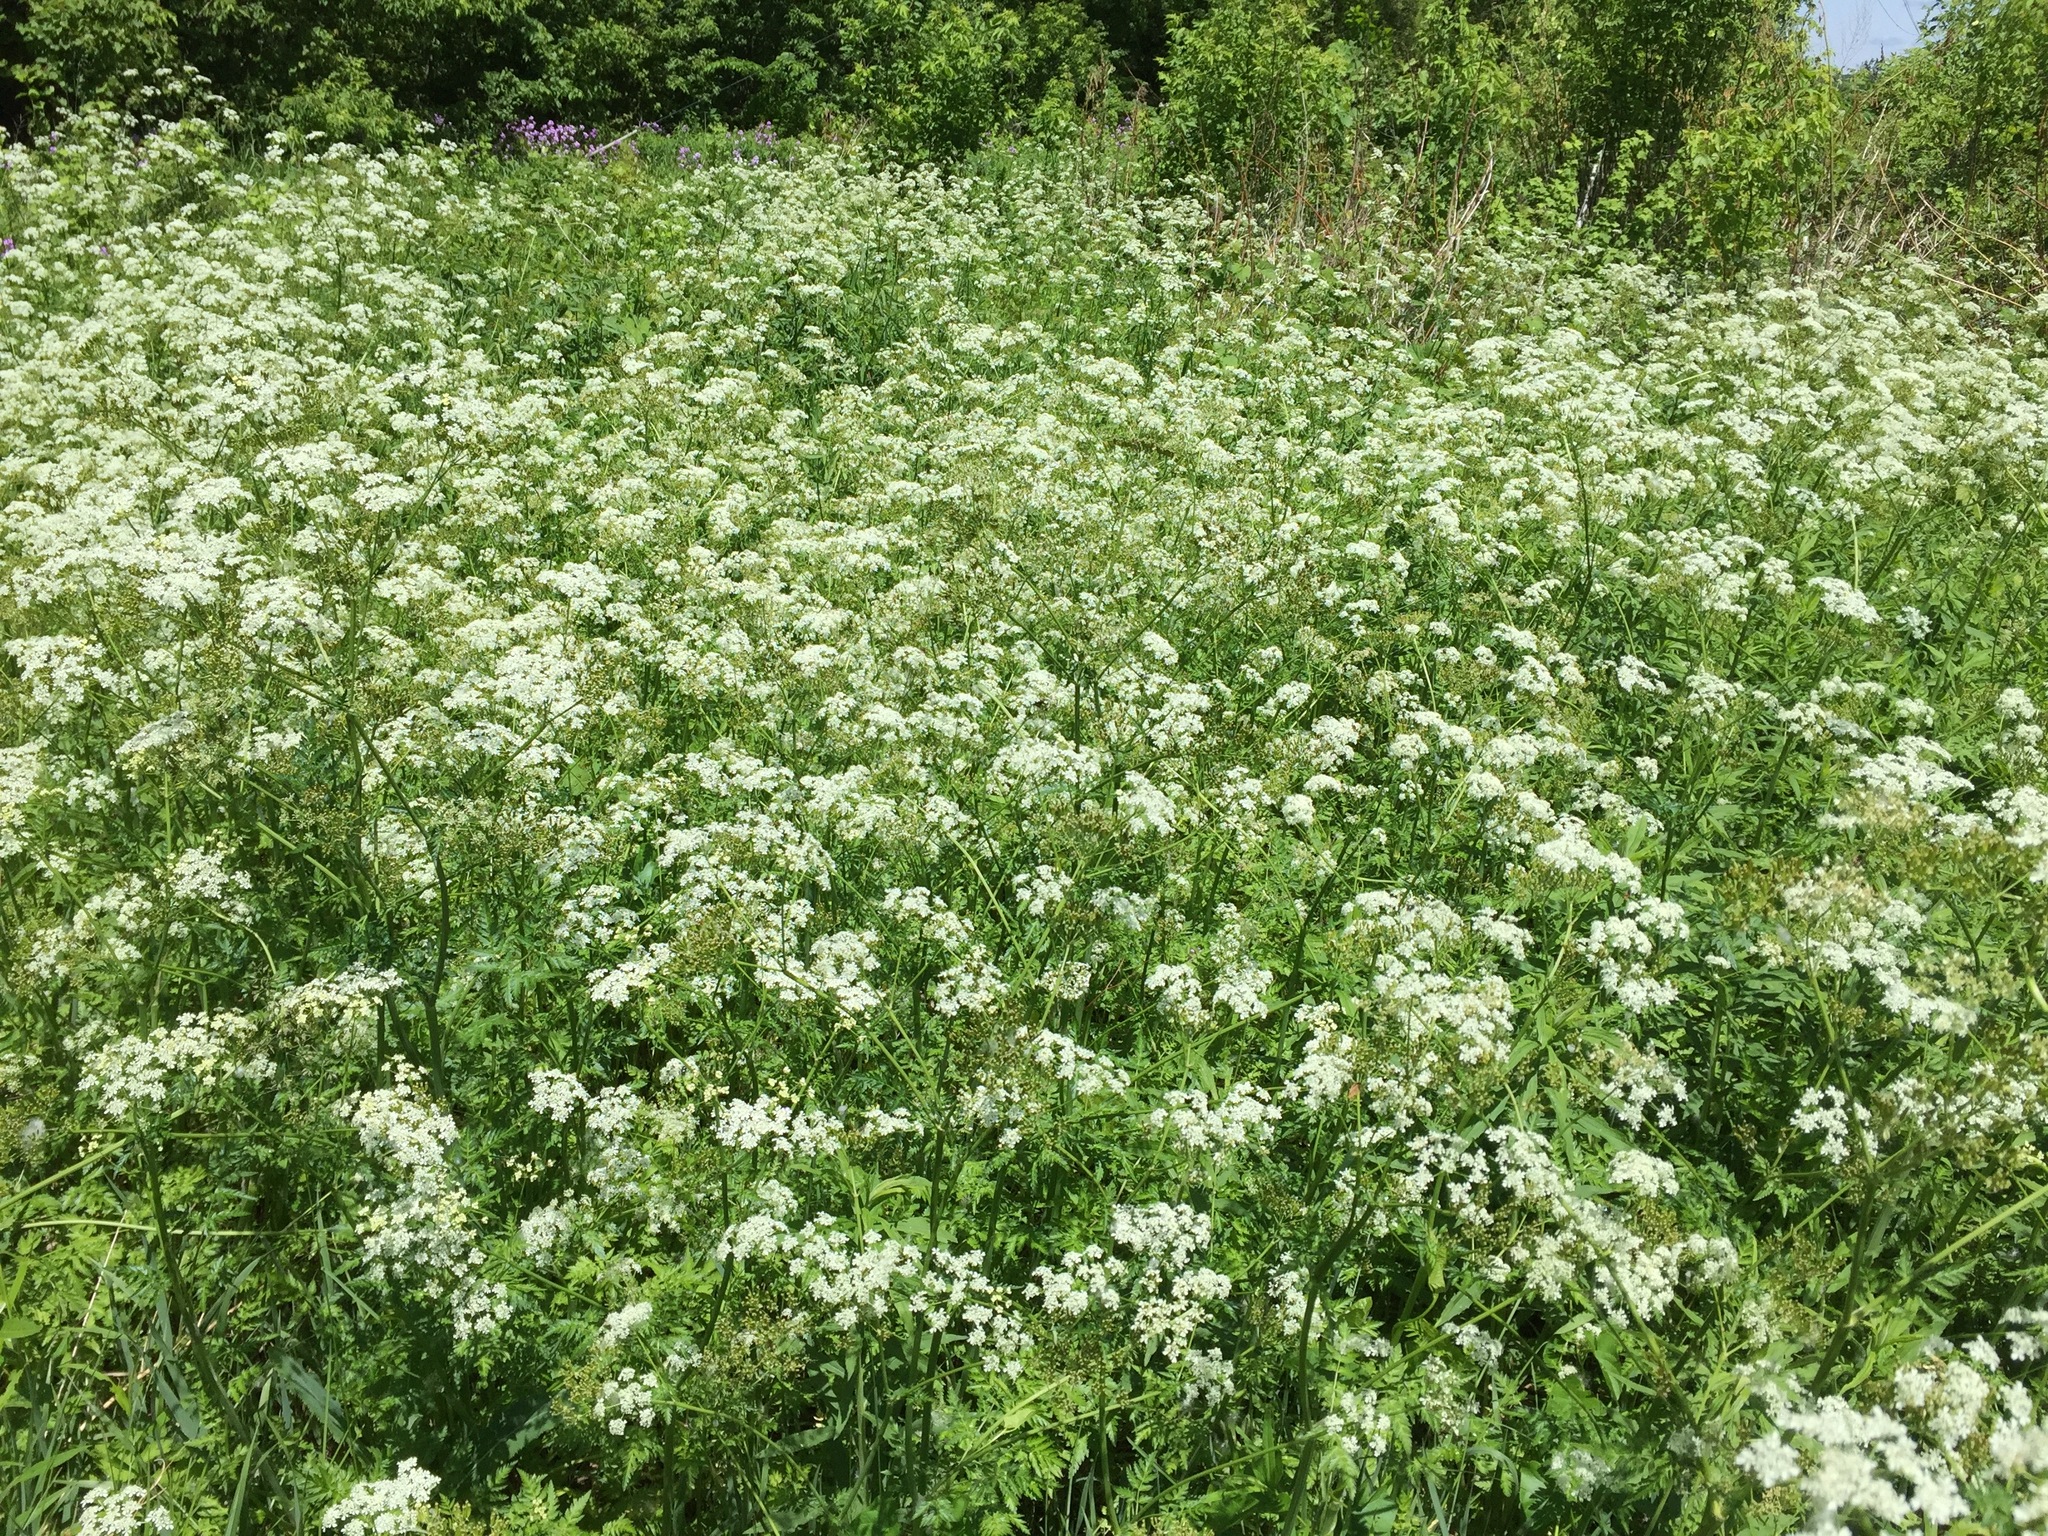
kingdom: Plantae
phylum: Tracheophyta
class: Magnoliopsida
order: Apiales
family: Apiaceae
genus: Anthriscus
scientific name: Anthriscus sylvestris
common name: Cow parsley
